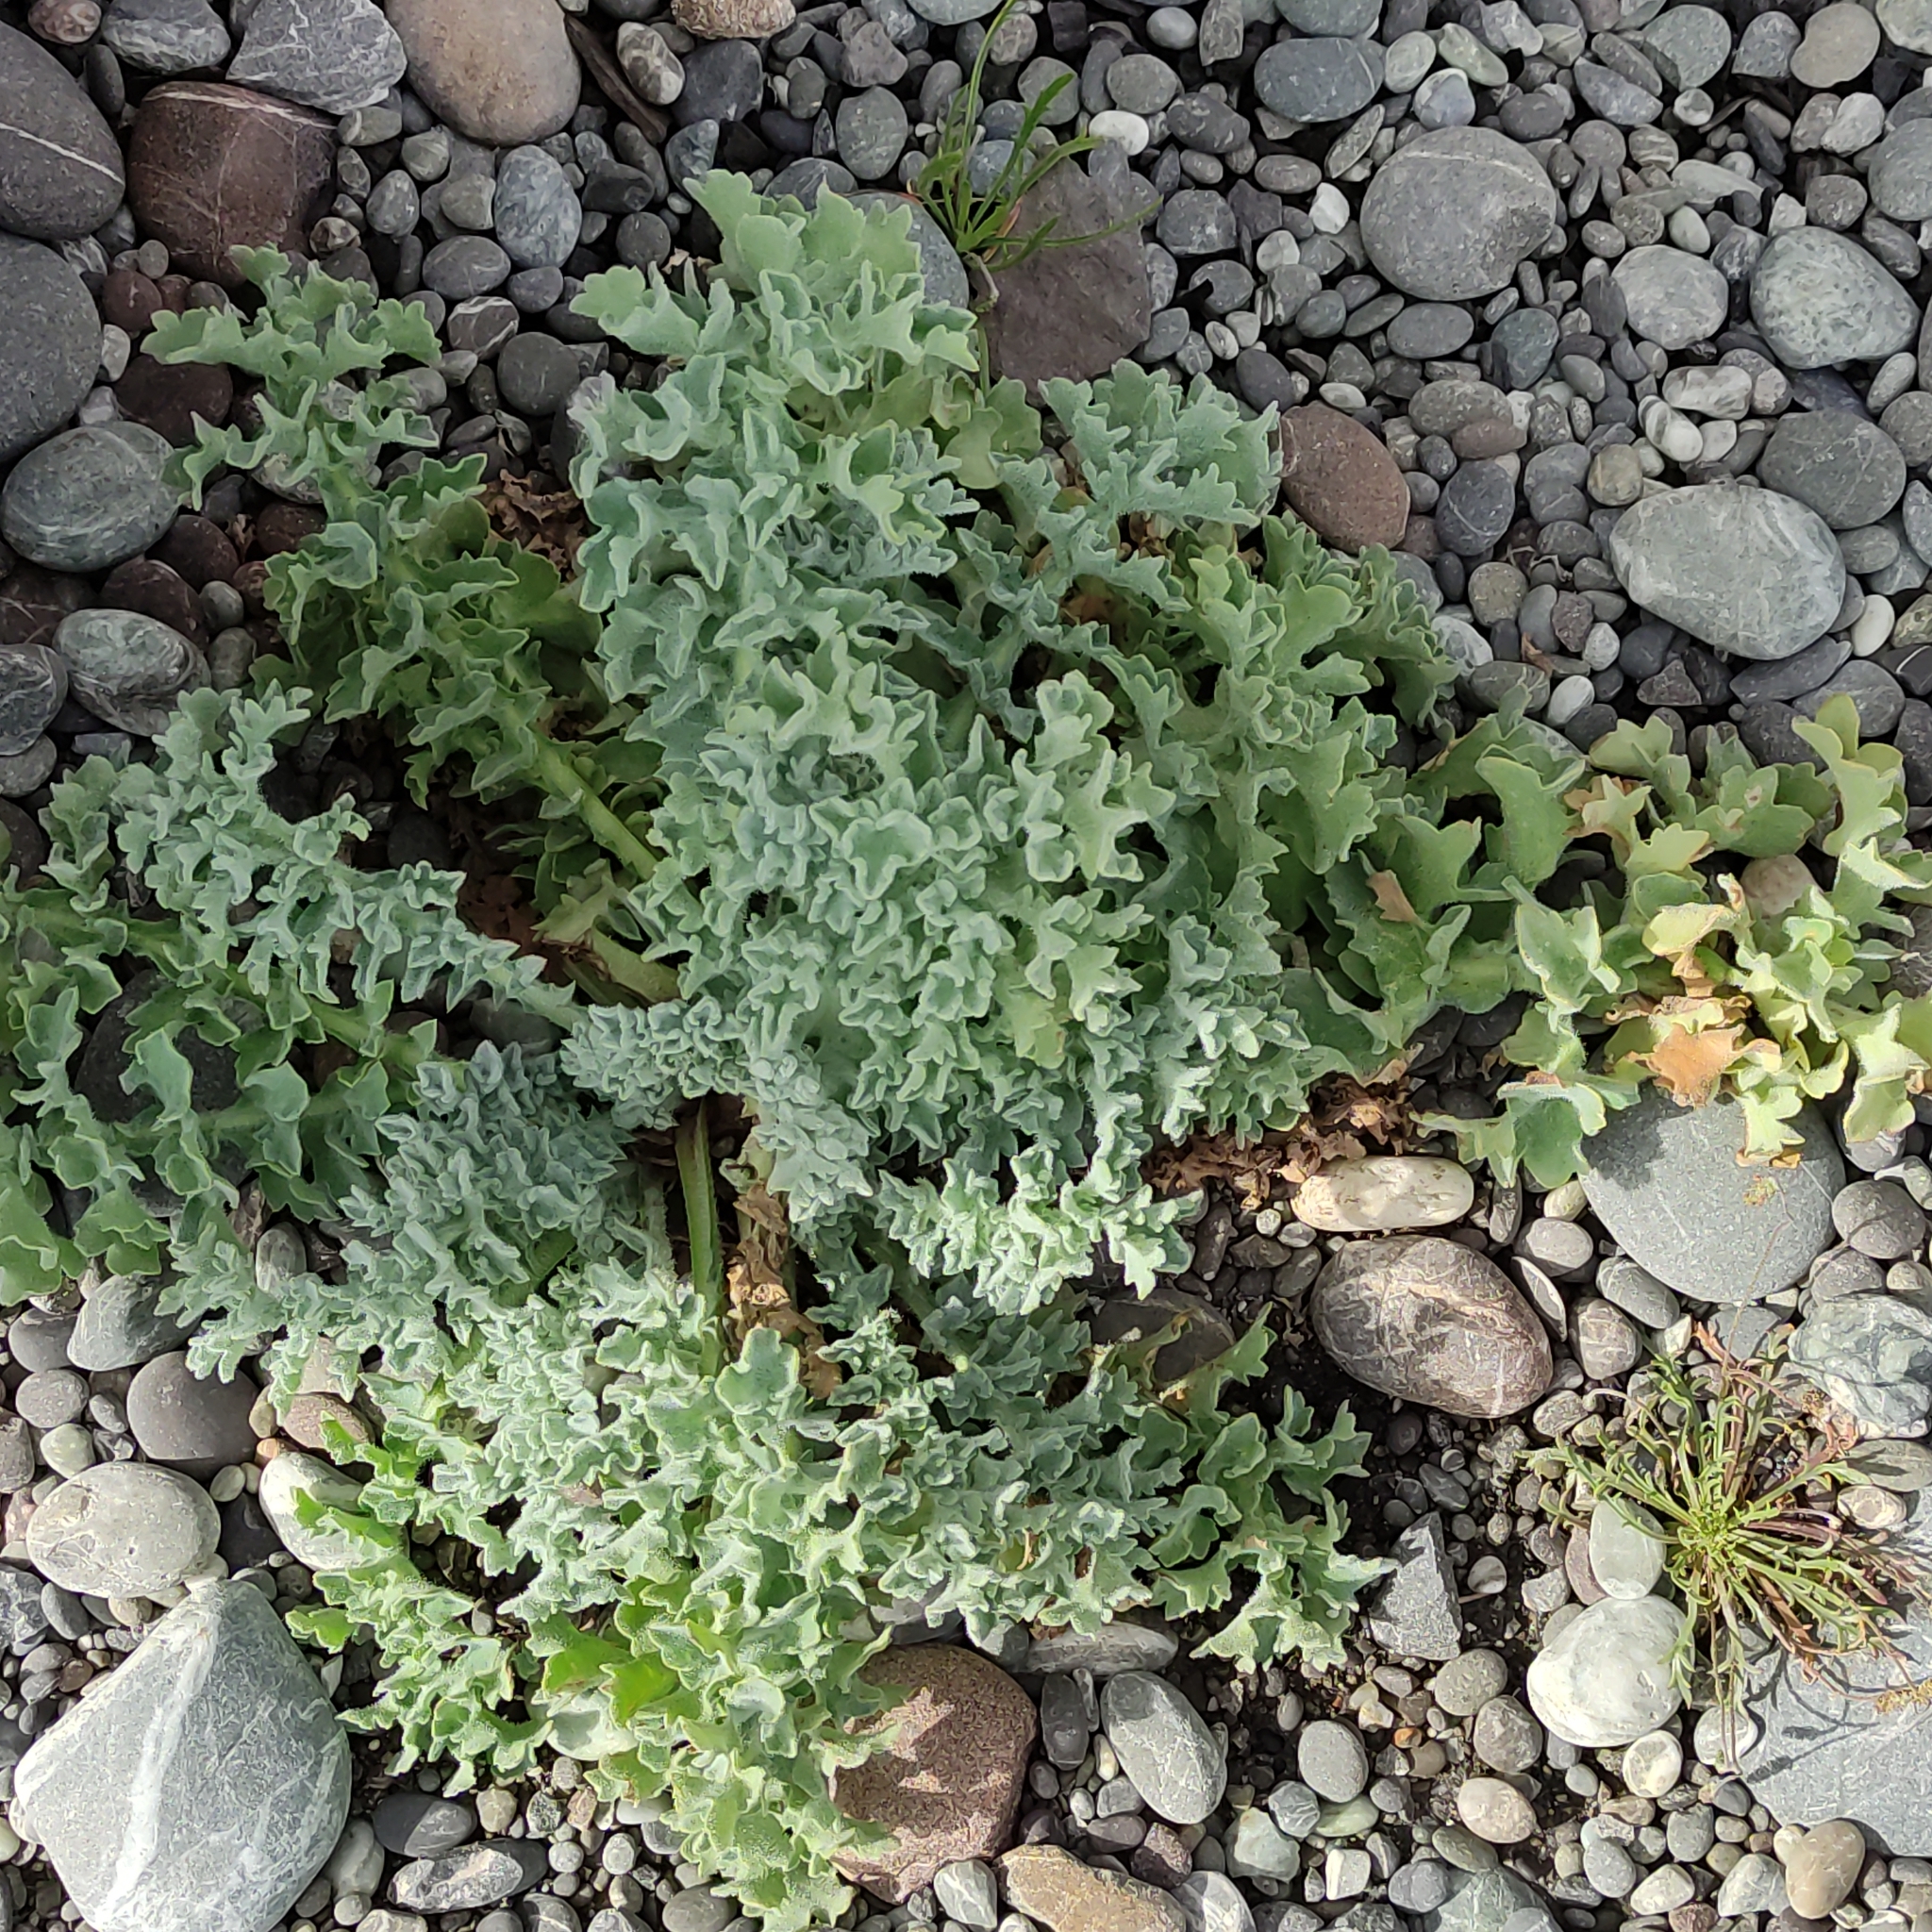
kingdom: Plantae
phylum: Tracheophyta
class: Magnoliopsida
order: Ranunculales
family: Papaveraceae
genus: Glaucium
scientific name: Glaucium flavum
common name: Yellow horned-poppy
